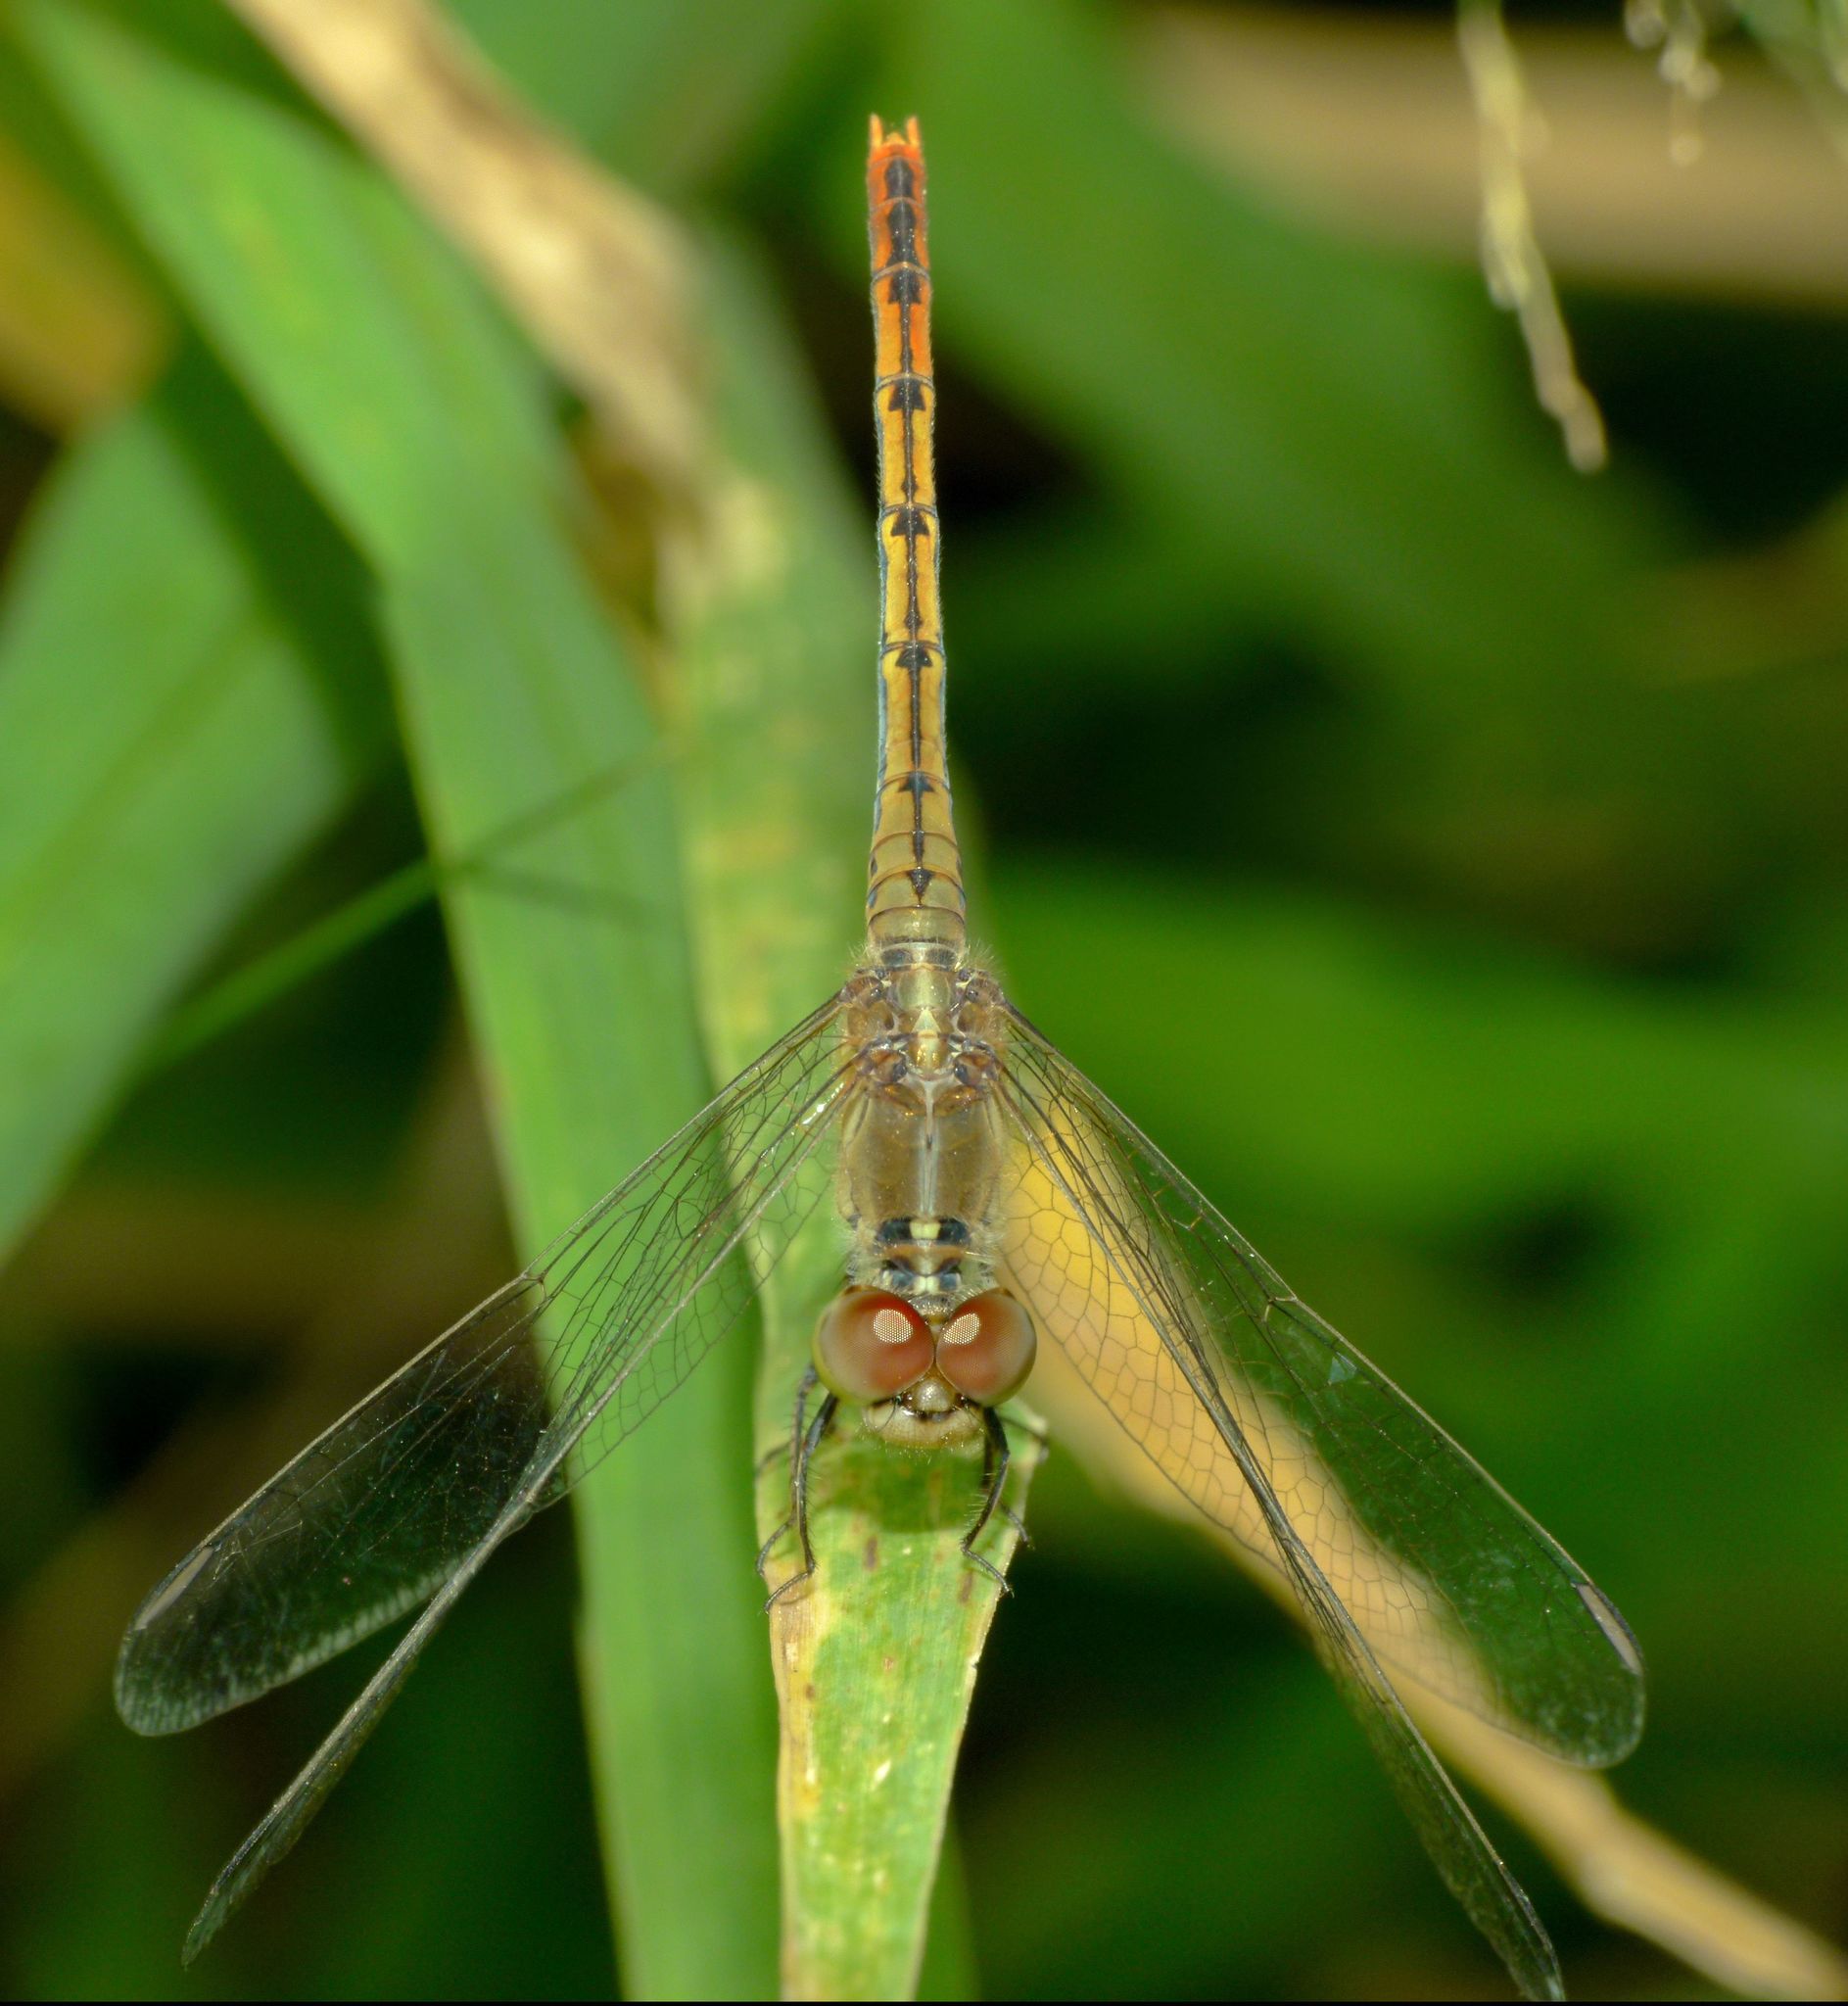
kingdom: Animalia
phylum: Arthropoda
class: Insecta
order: Odonata
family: Libellulidae
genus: Diplacodes
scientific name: Diplacodes bipunctata
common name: Red percher dragonfly
